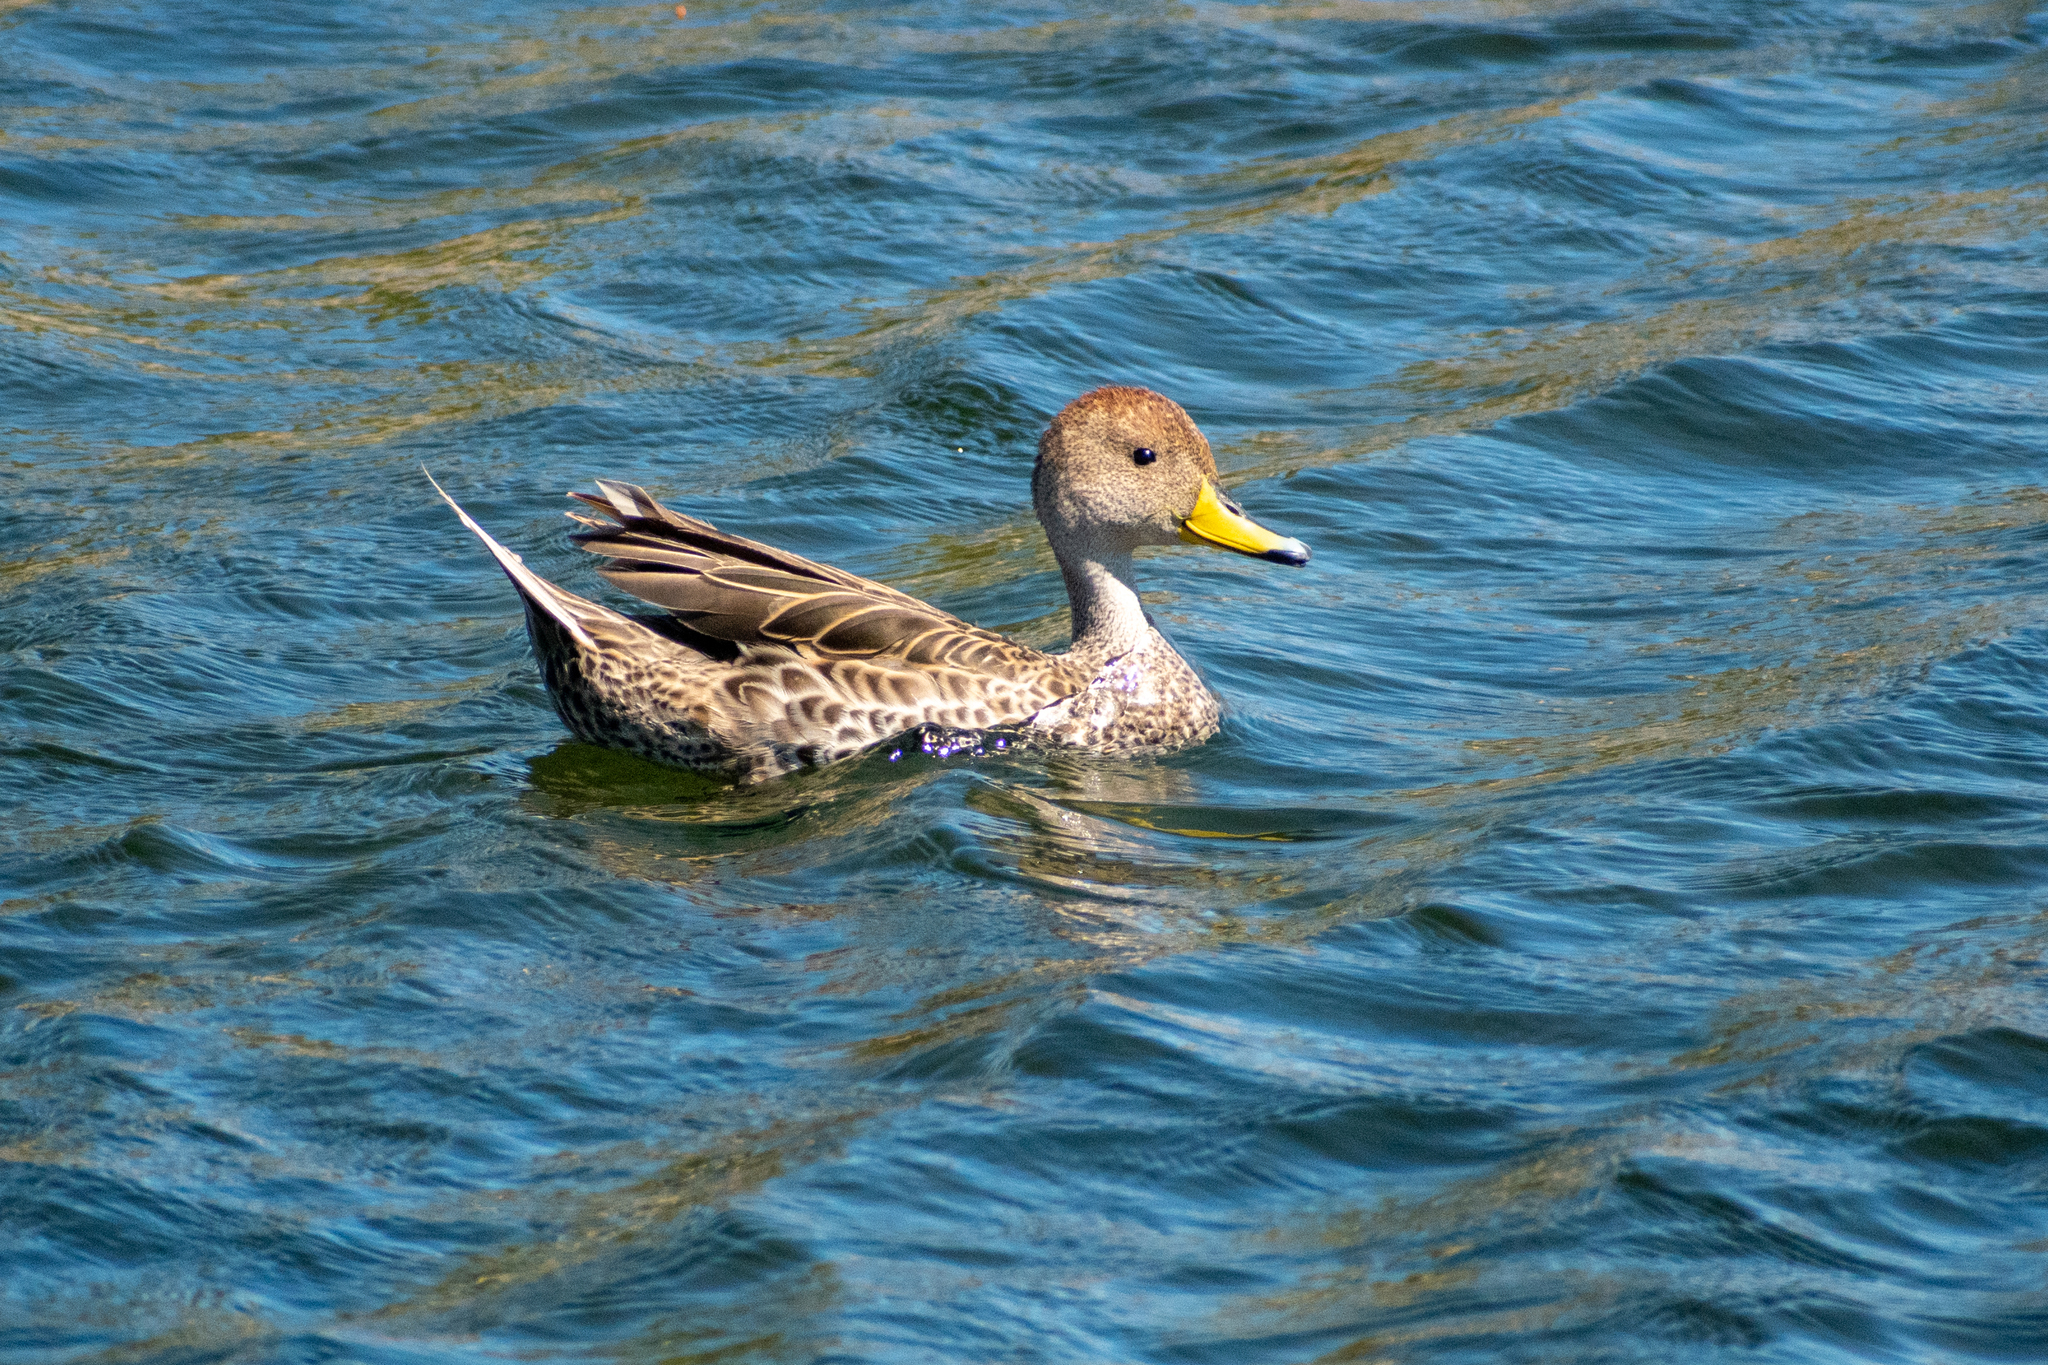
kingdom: Animalia
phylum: Chordata
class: Aves
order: Anseriformes
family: Anatidae
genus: Anas
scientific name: Anas georgica
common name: Yellow-billed pintail
